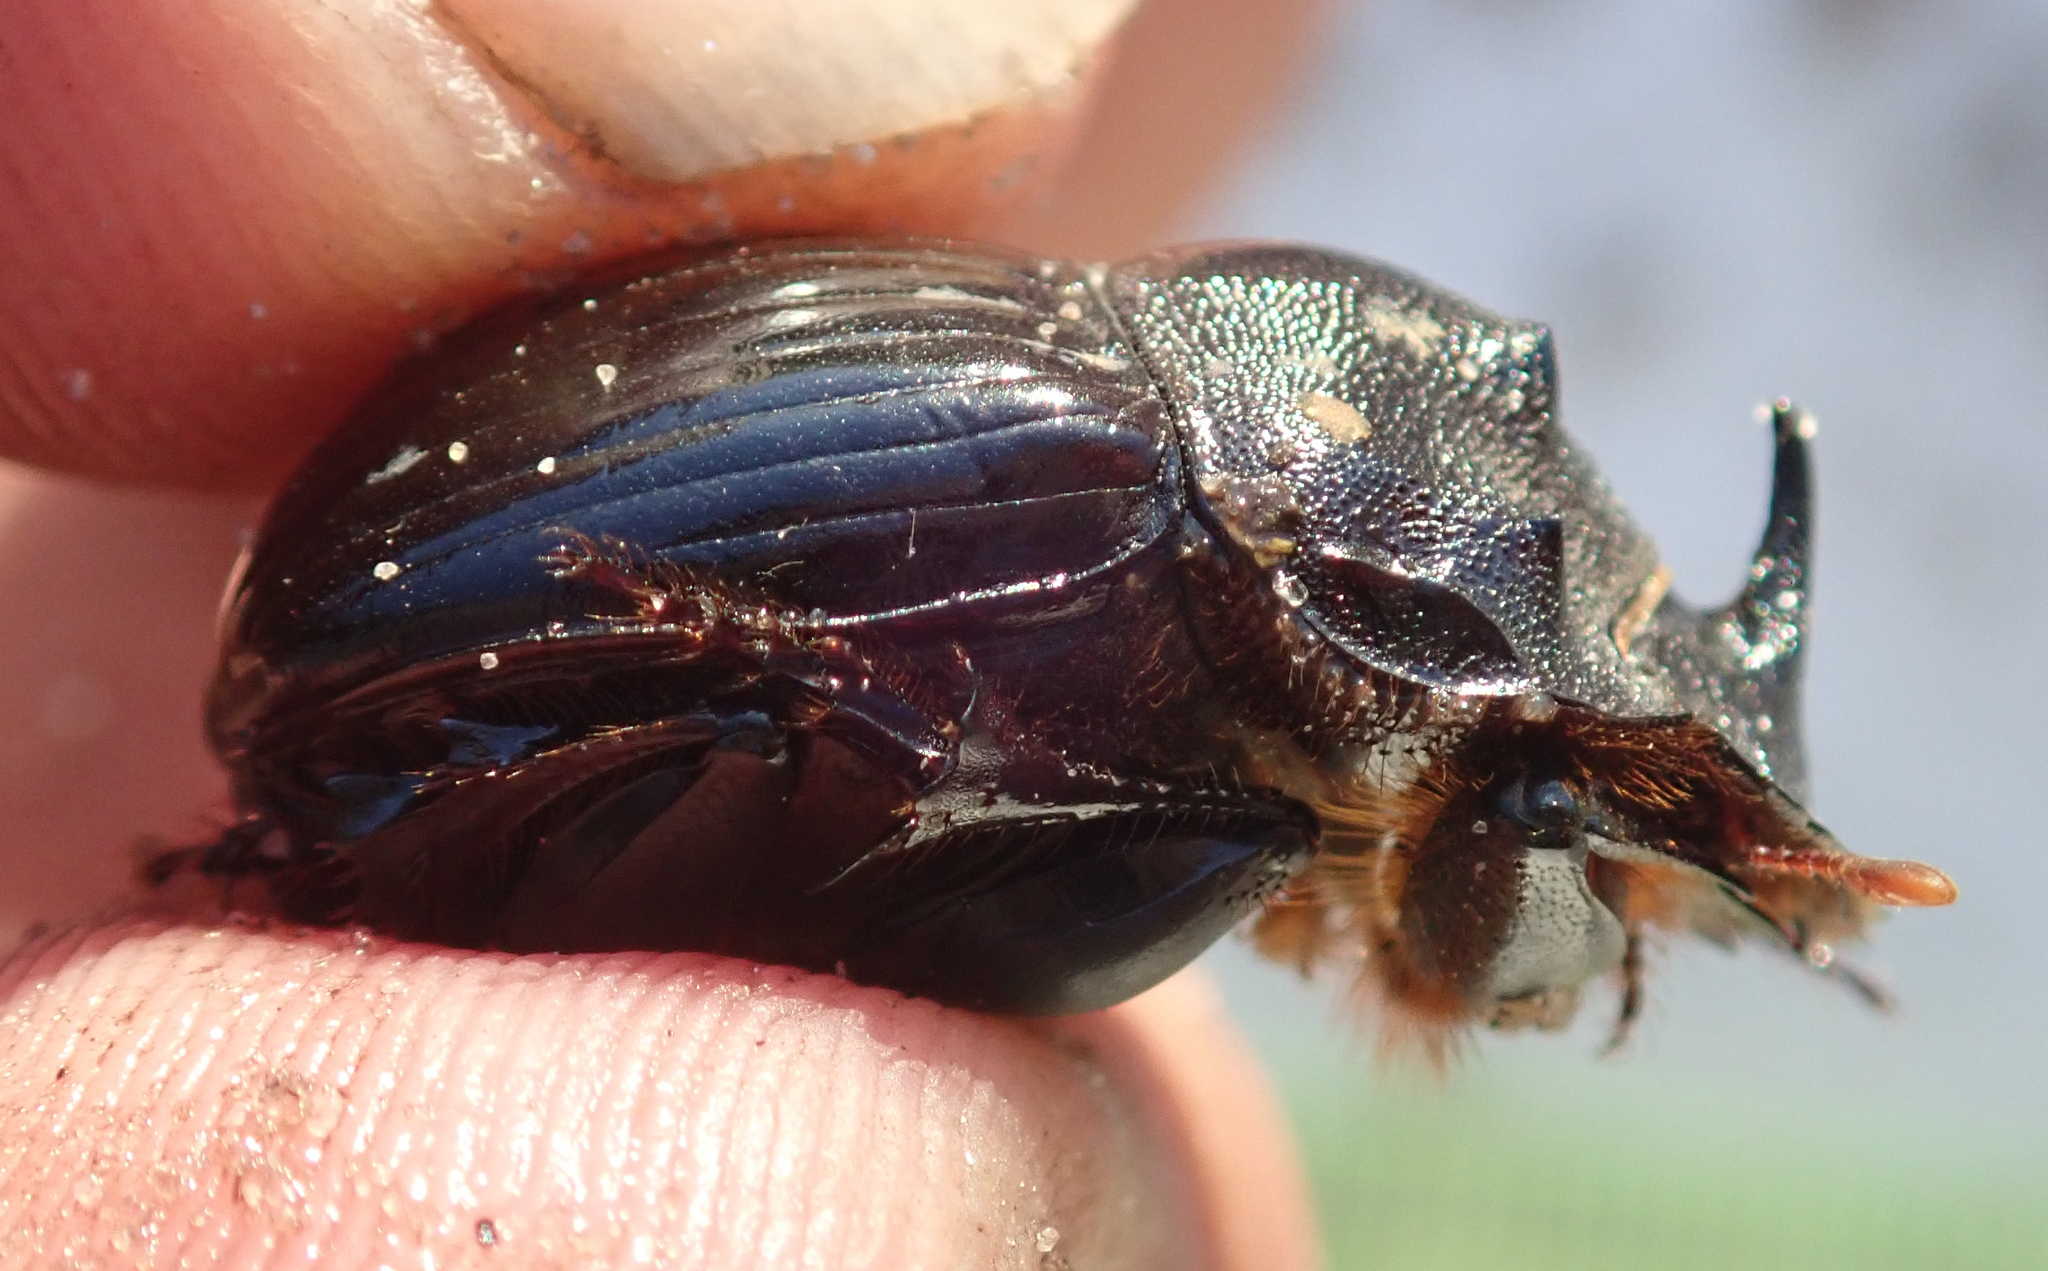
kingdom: Animalia
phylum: Arthropoda
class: Insecta
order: Coleoptera
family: Scarabaeidae
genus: Copris
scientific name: Copris elphenor
